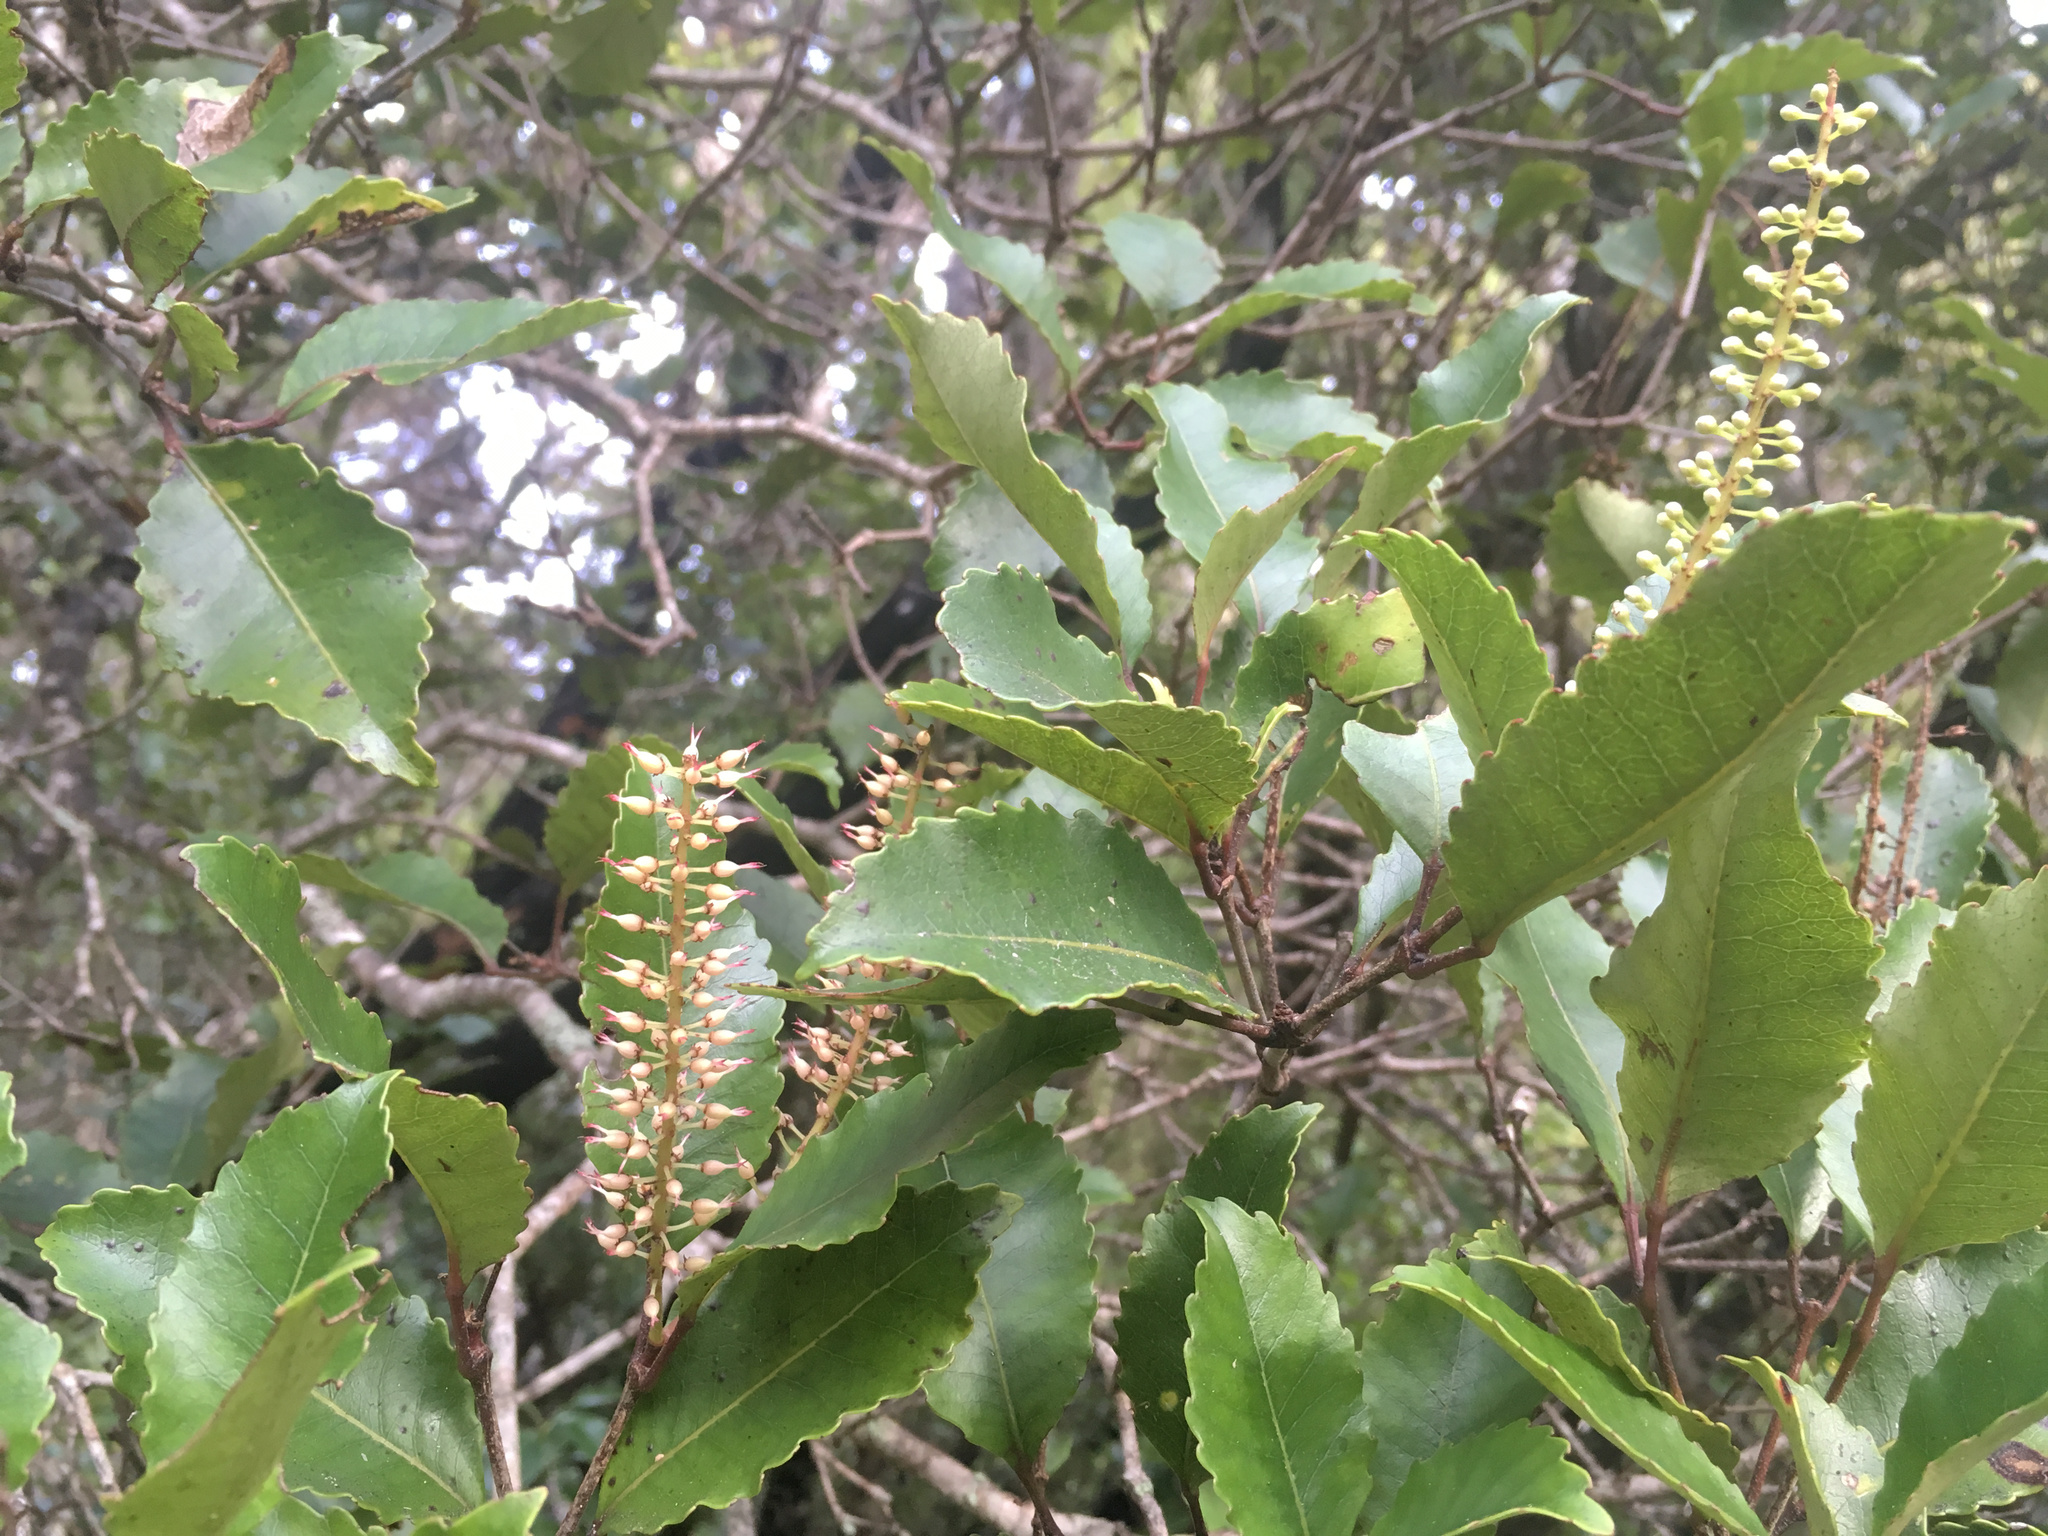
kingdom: Plantae
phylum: Tracheophyta
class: Magnoliopsida
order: Oxalidales
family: Cunoniaceae
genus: Pterophylla
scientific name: Pterophylla racemosa
